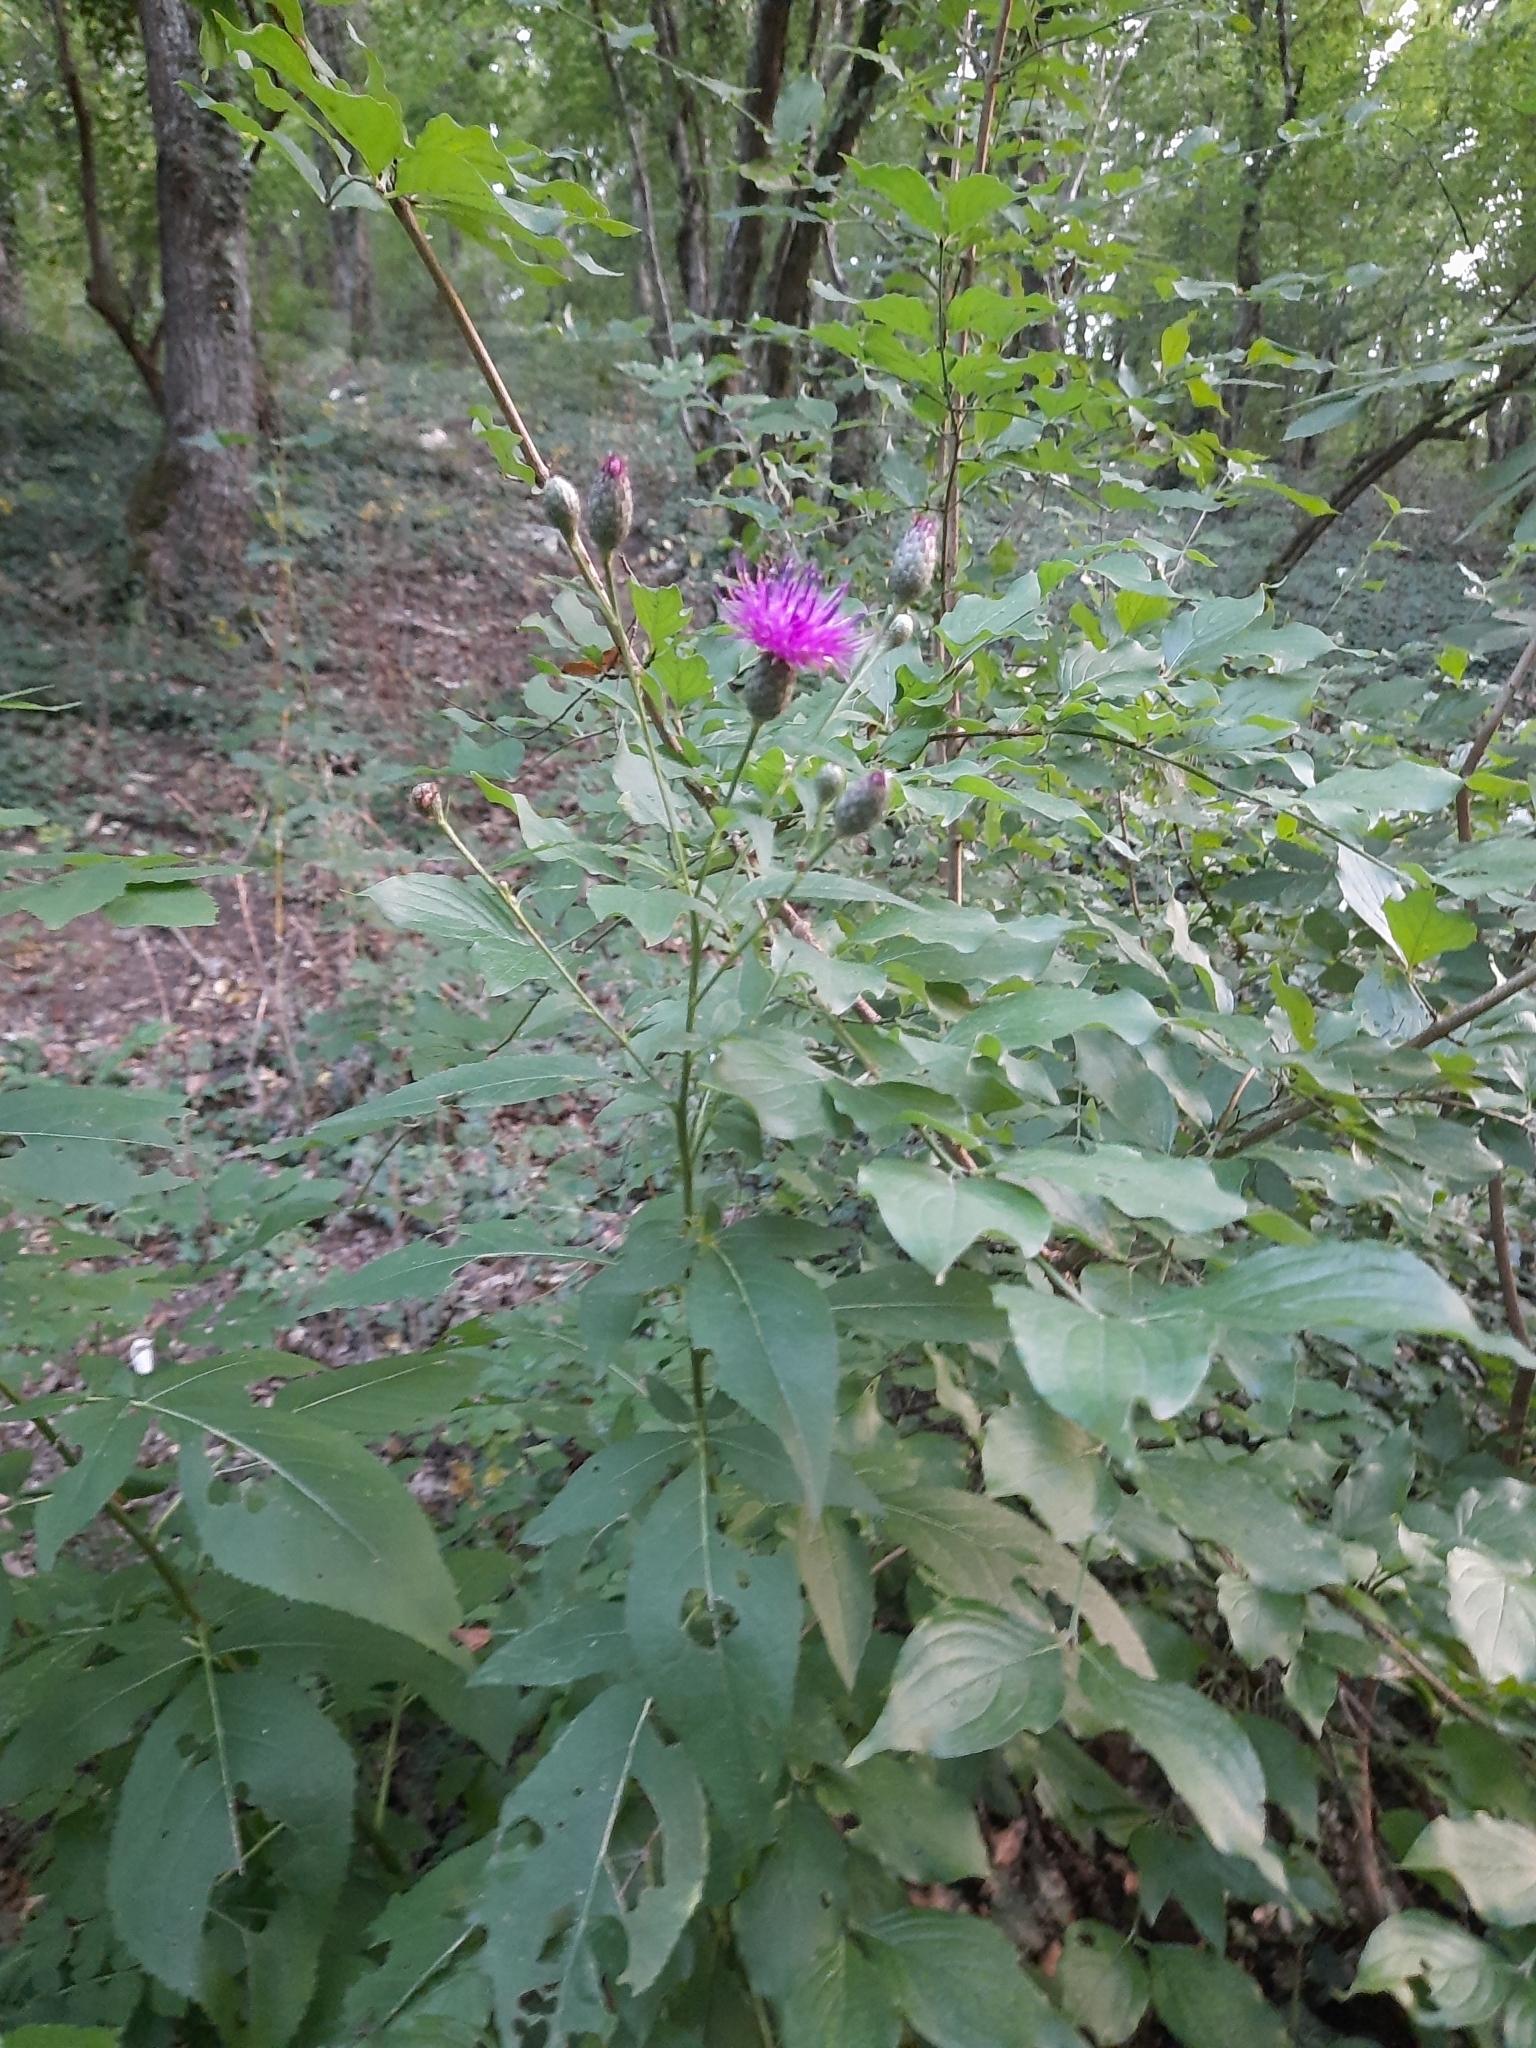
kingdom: Plantae
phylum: Tracheophyta
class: Magnoliopsida
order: Asterales
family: Asteraceae
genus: Klasea
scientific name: Klasea quinquefolia
